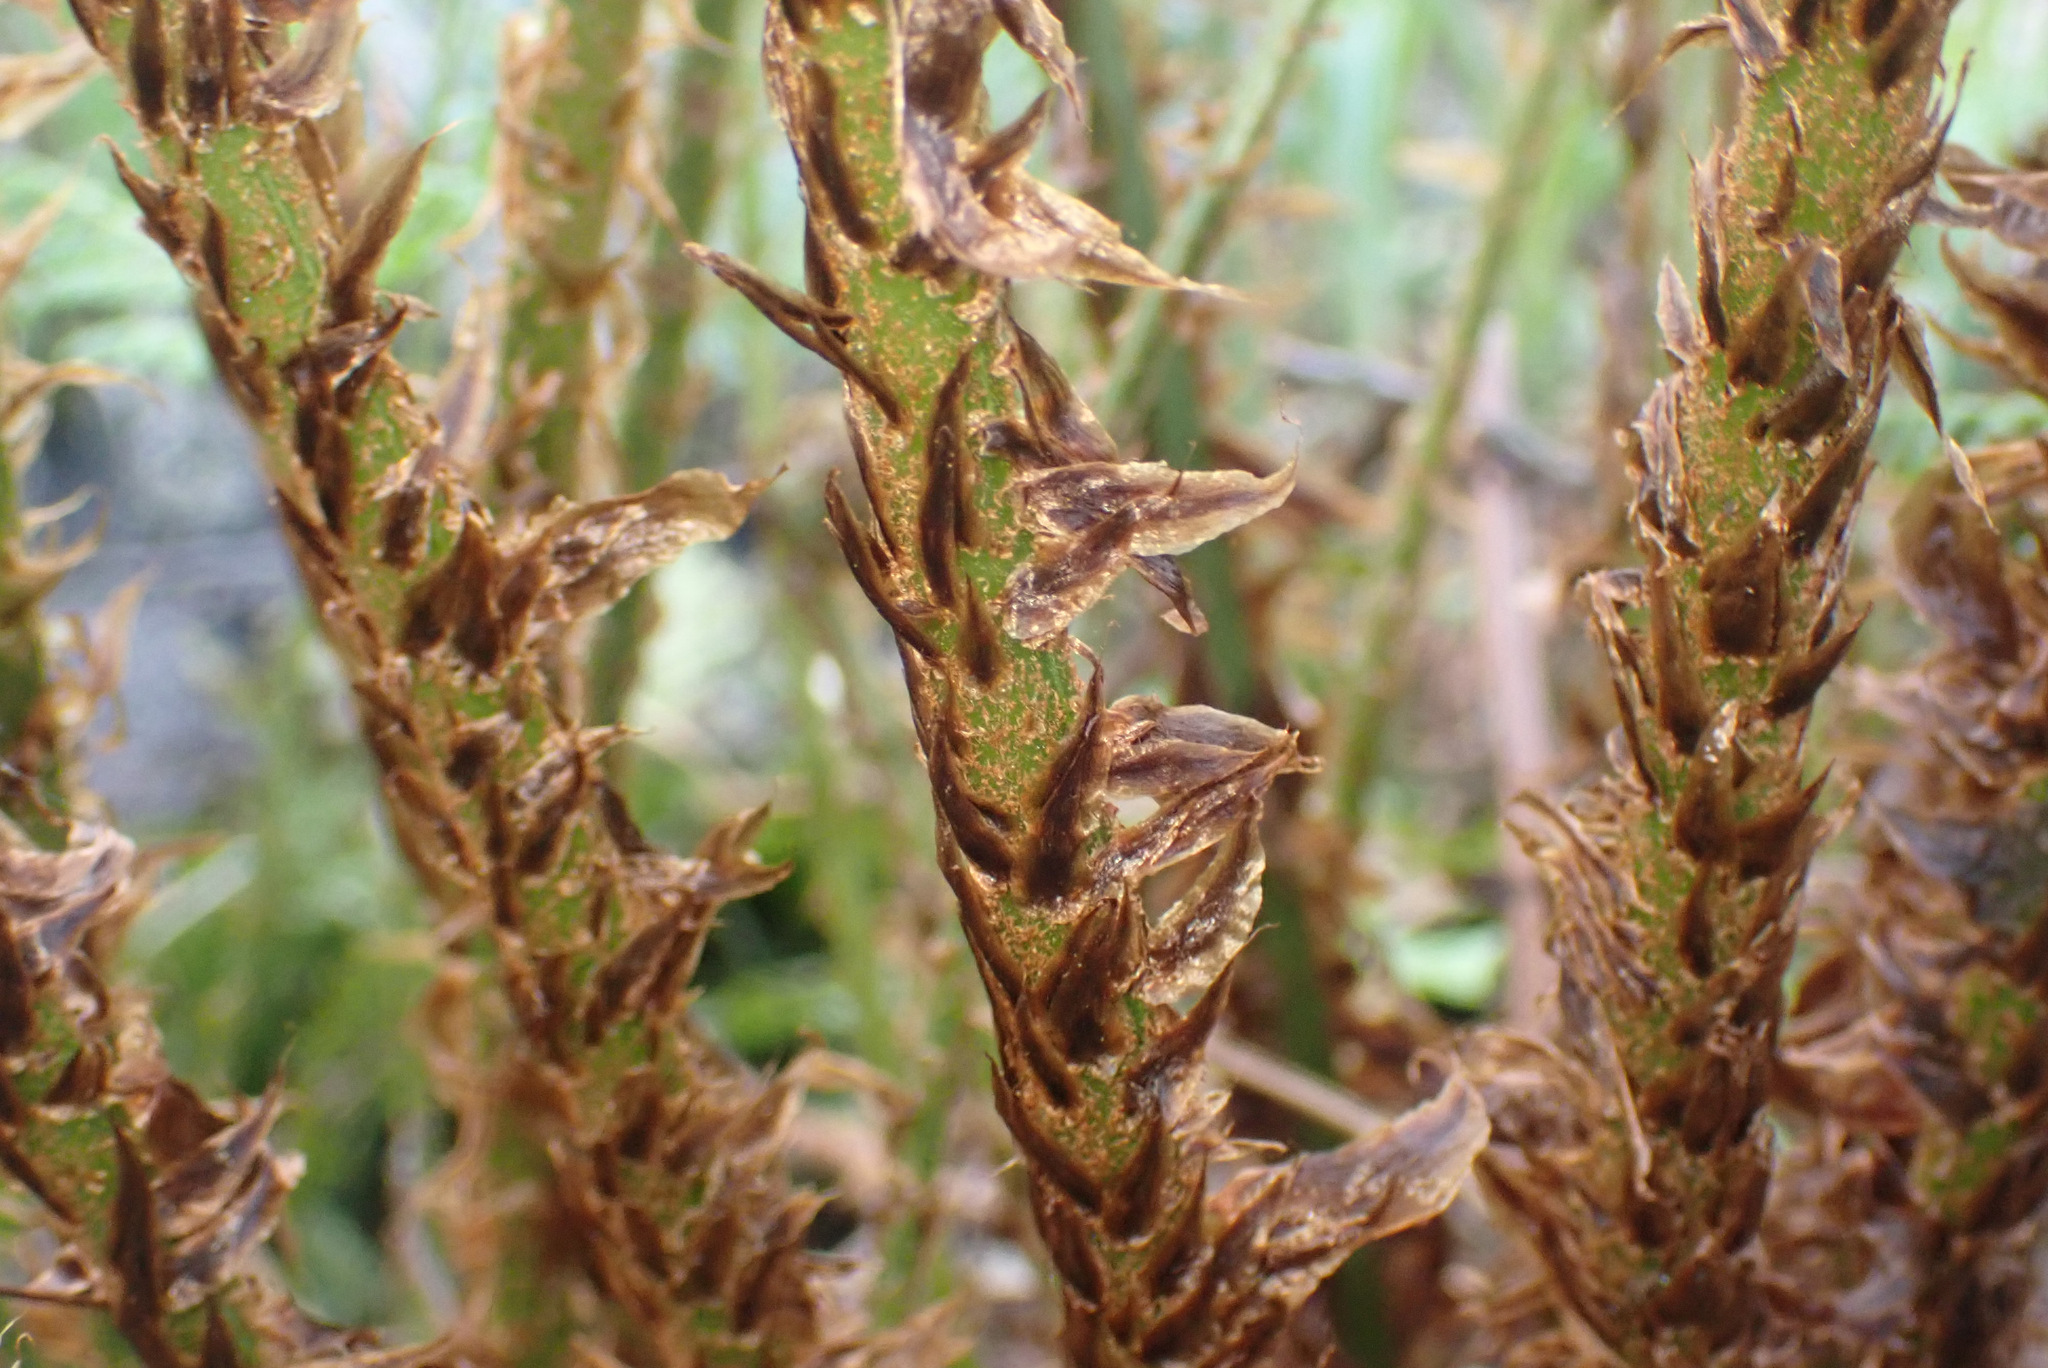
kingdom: Plantae
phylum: Tracheophyta
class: Polypodiopsida
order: Polypodiales
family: Dryopteridaceae
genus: Dryopteris
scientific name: Dryopteris dilatata
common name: Broad buckler-fern
